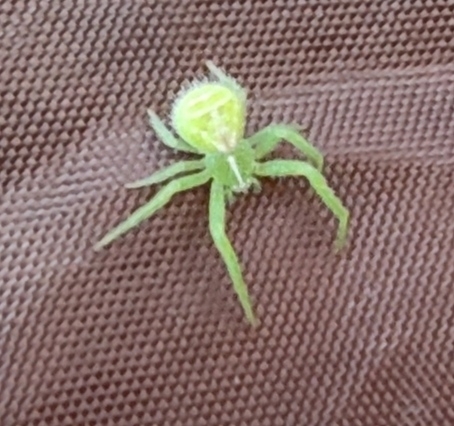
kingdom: Animalia
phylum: Arthropoda
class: Arachnida
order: Araneae
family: Thomisidae
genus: Heriaeus
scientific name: Heriaeus oblongus
